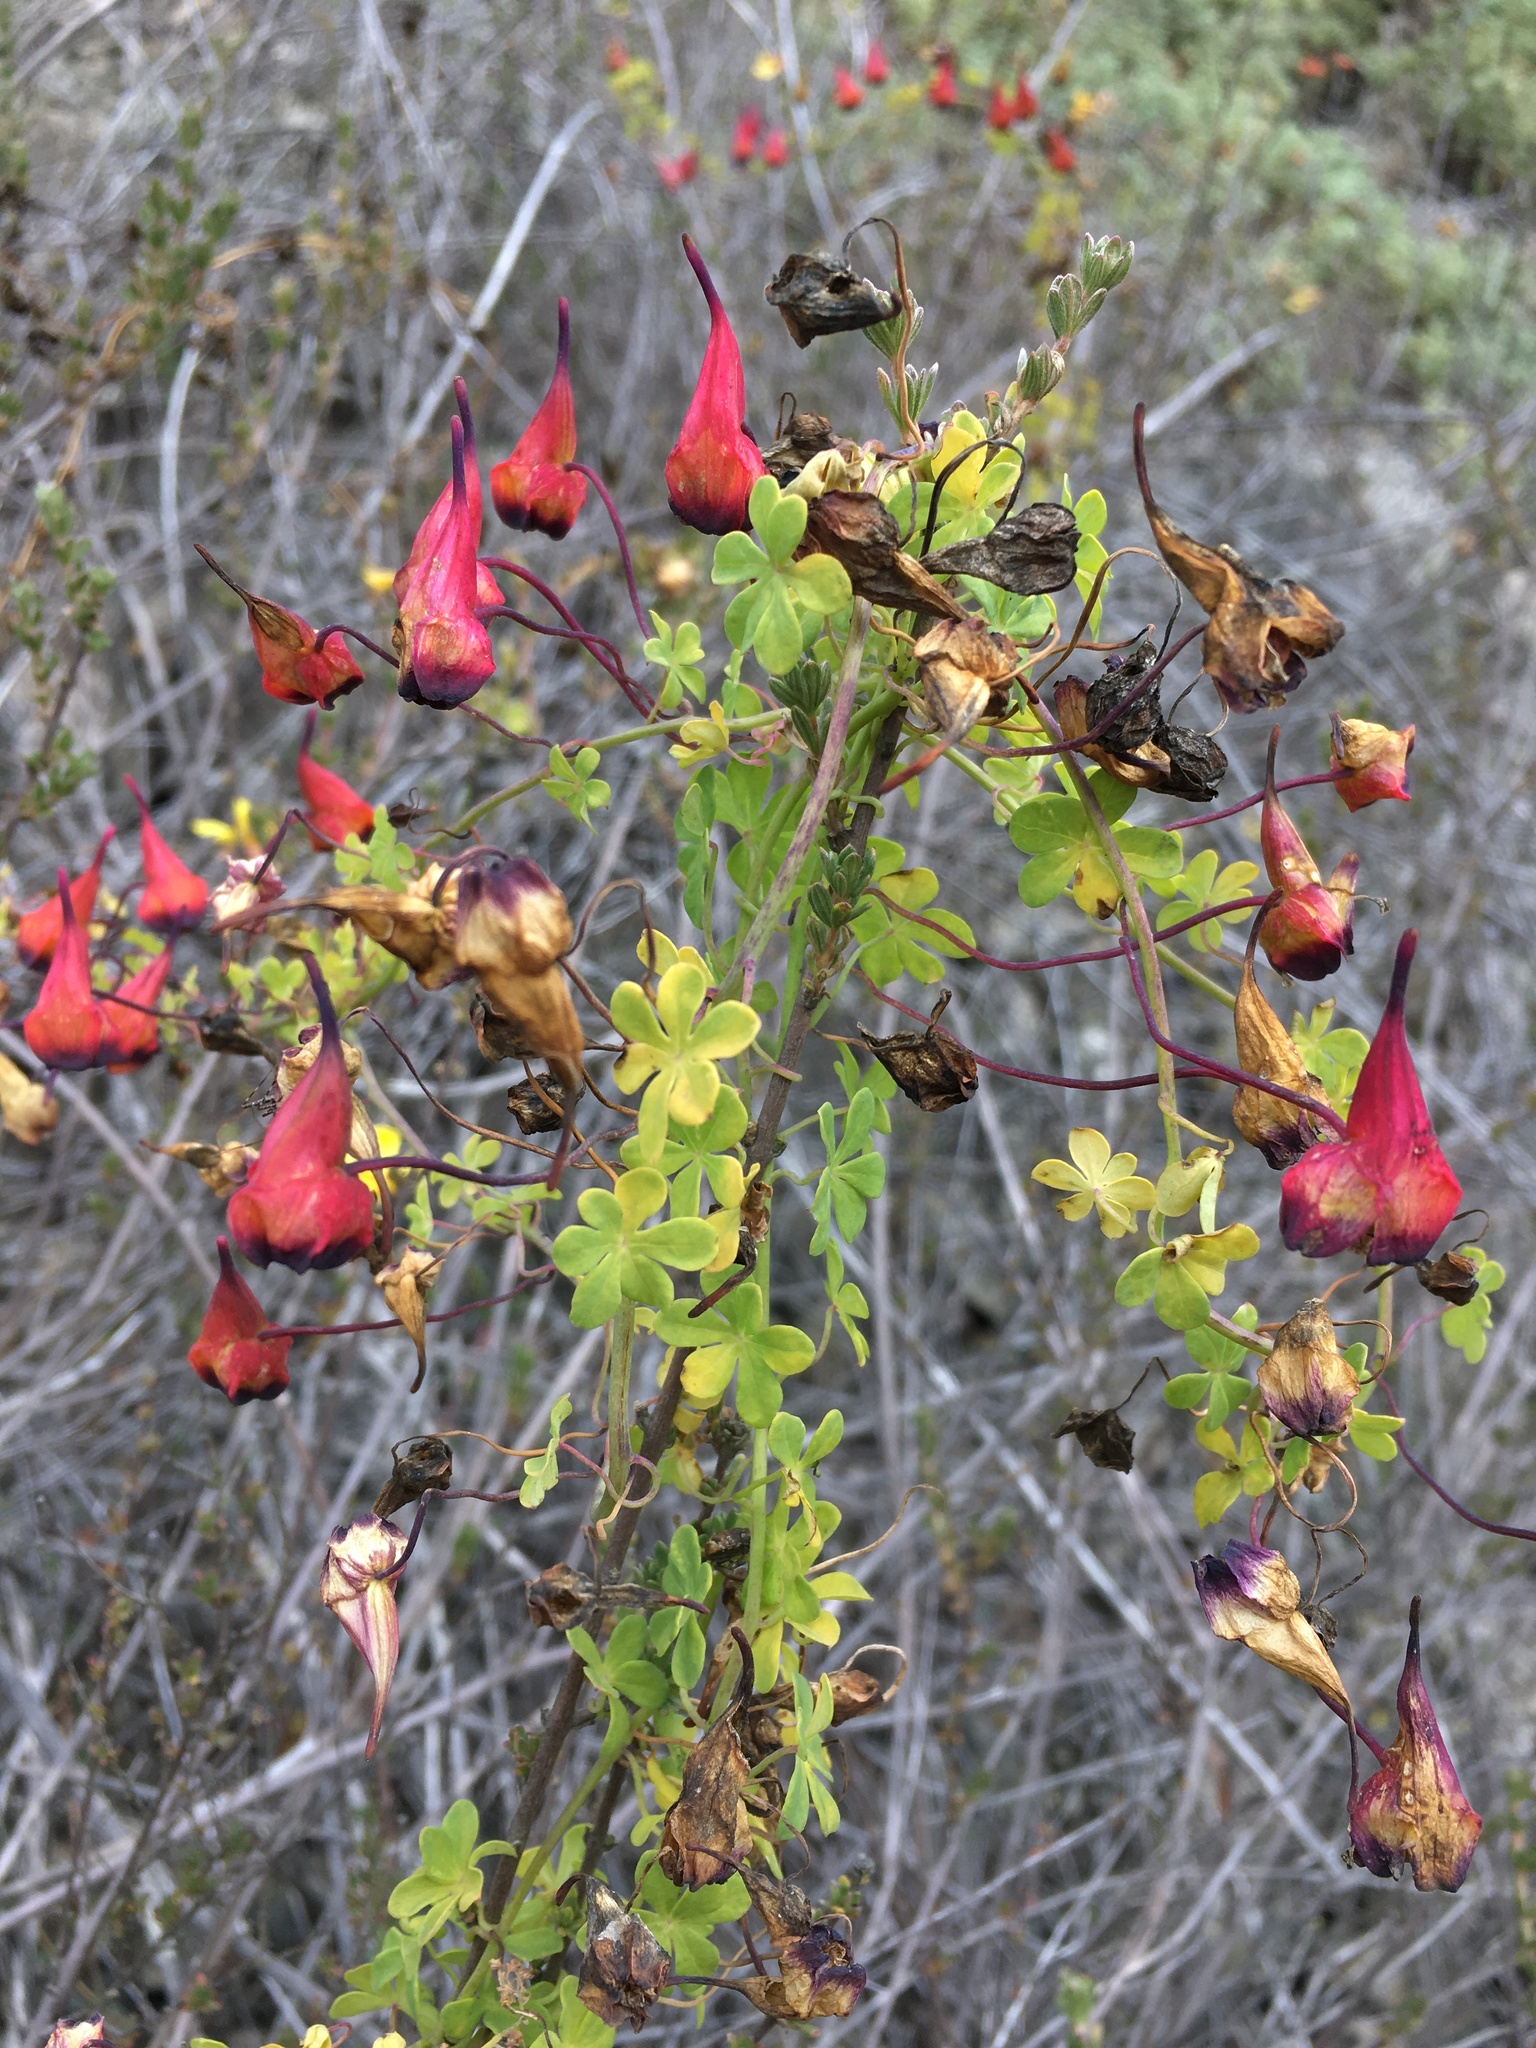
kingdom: Plantae
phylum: Tracheophyta
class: Magnoliopsida
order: Brassicales
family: Tropaeolaceae
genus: Tropaeolum
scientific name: Tropaeolum tricolor
